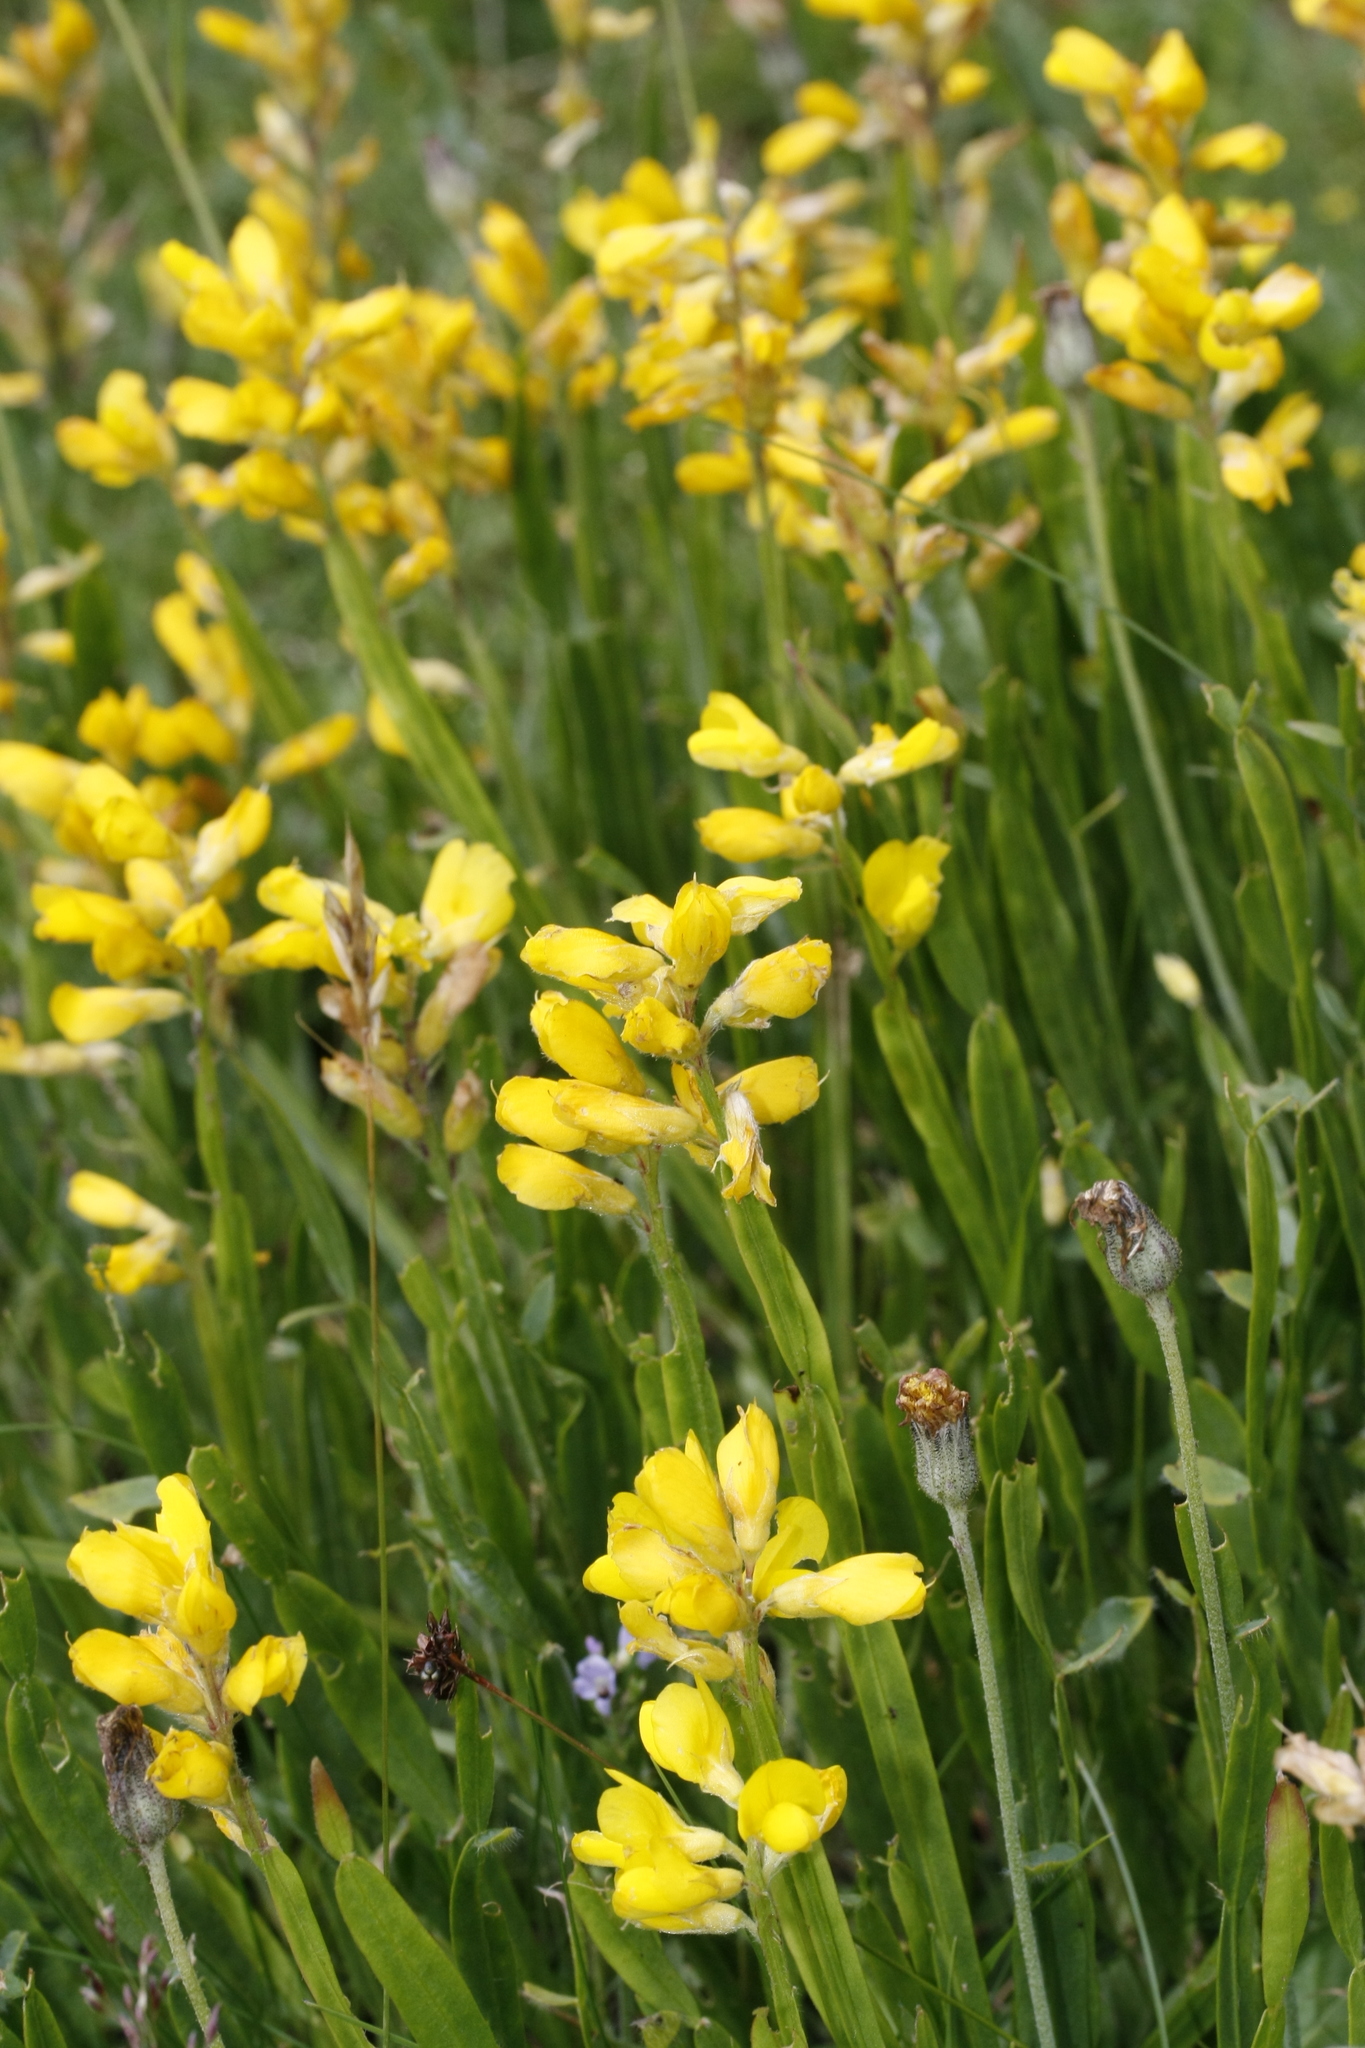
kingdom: Plantae
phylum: Tracheophyta
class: Magnoliopsida
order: Fabales
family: Fabaceae
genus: Genista
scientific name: Genista sagittalis
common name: Winged greenweed
